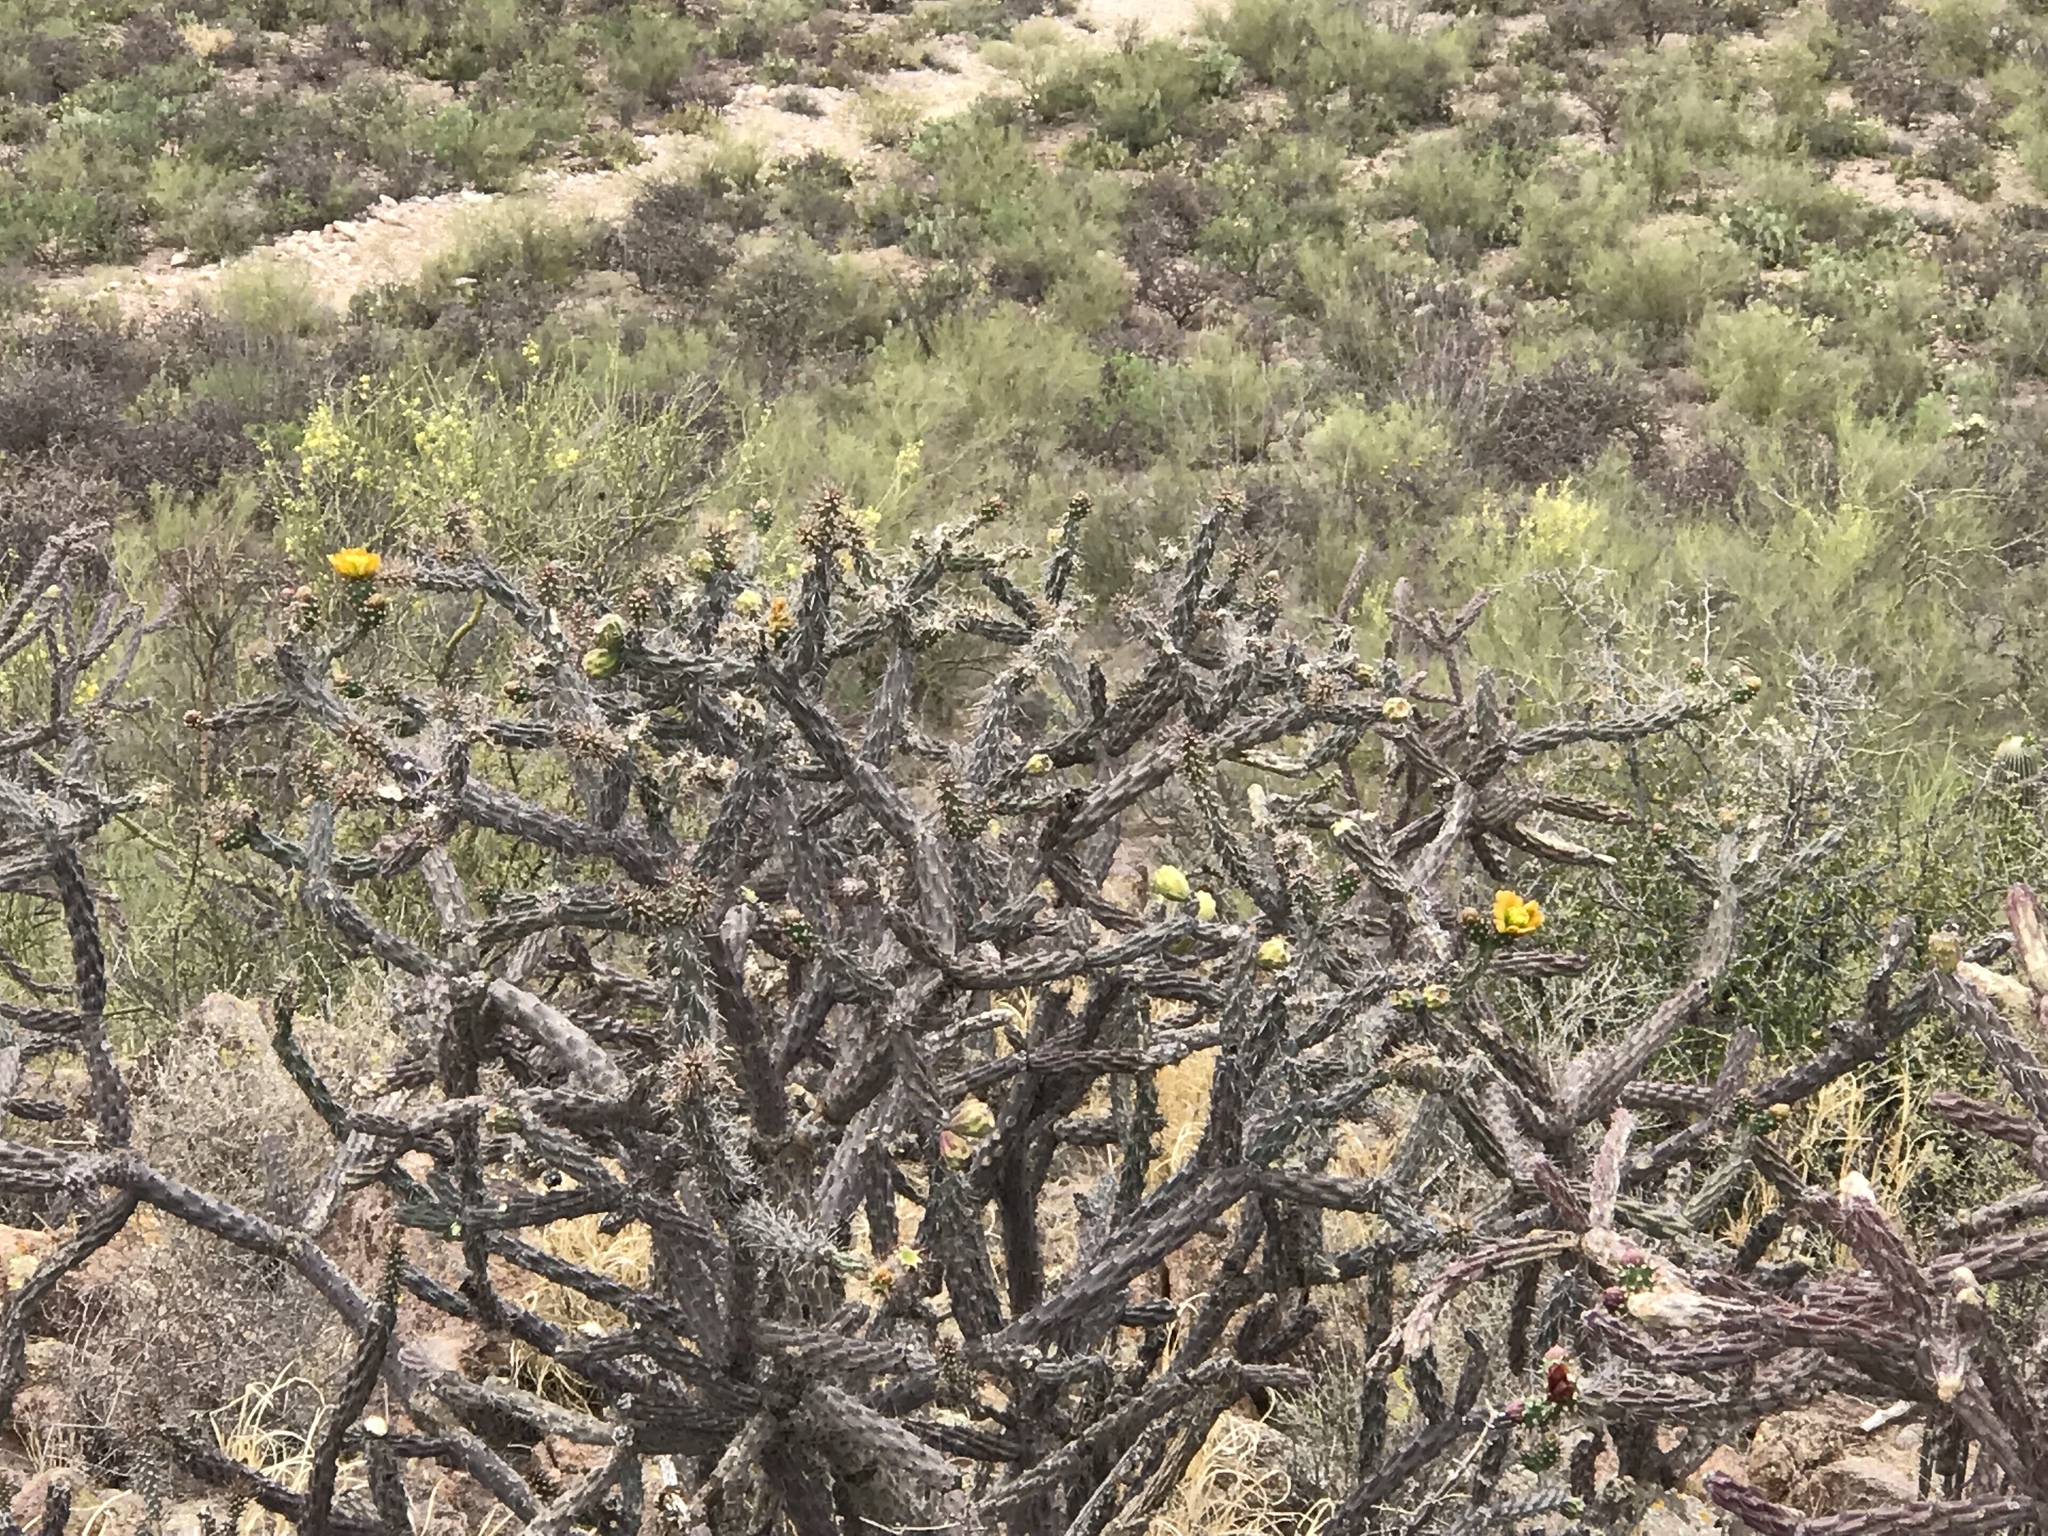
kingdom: Plantae
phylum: Tracheophyta
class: Magnoliopsida
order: Caryophyllales
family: Cactaceae
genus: Cylindropuntia
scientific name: Cylindropuntia thurberi
